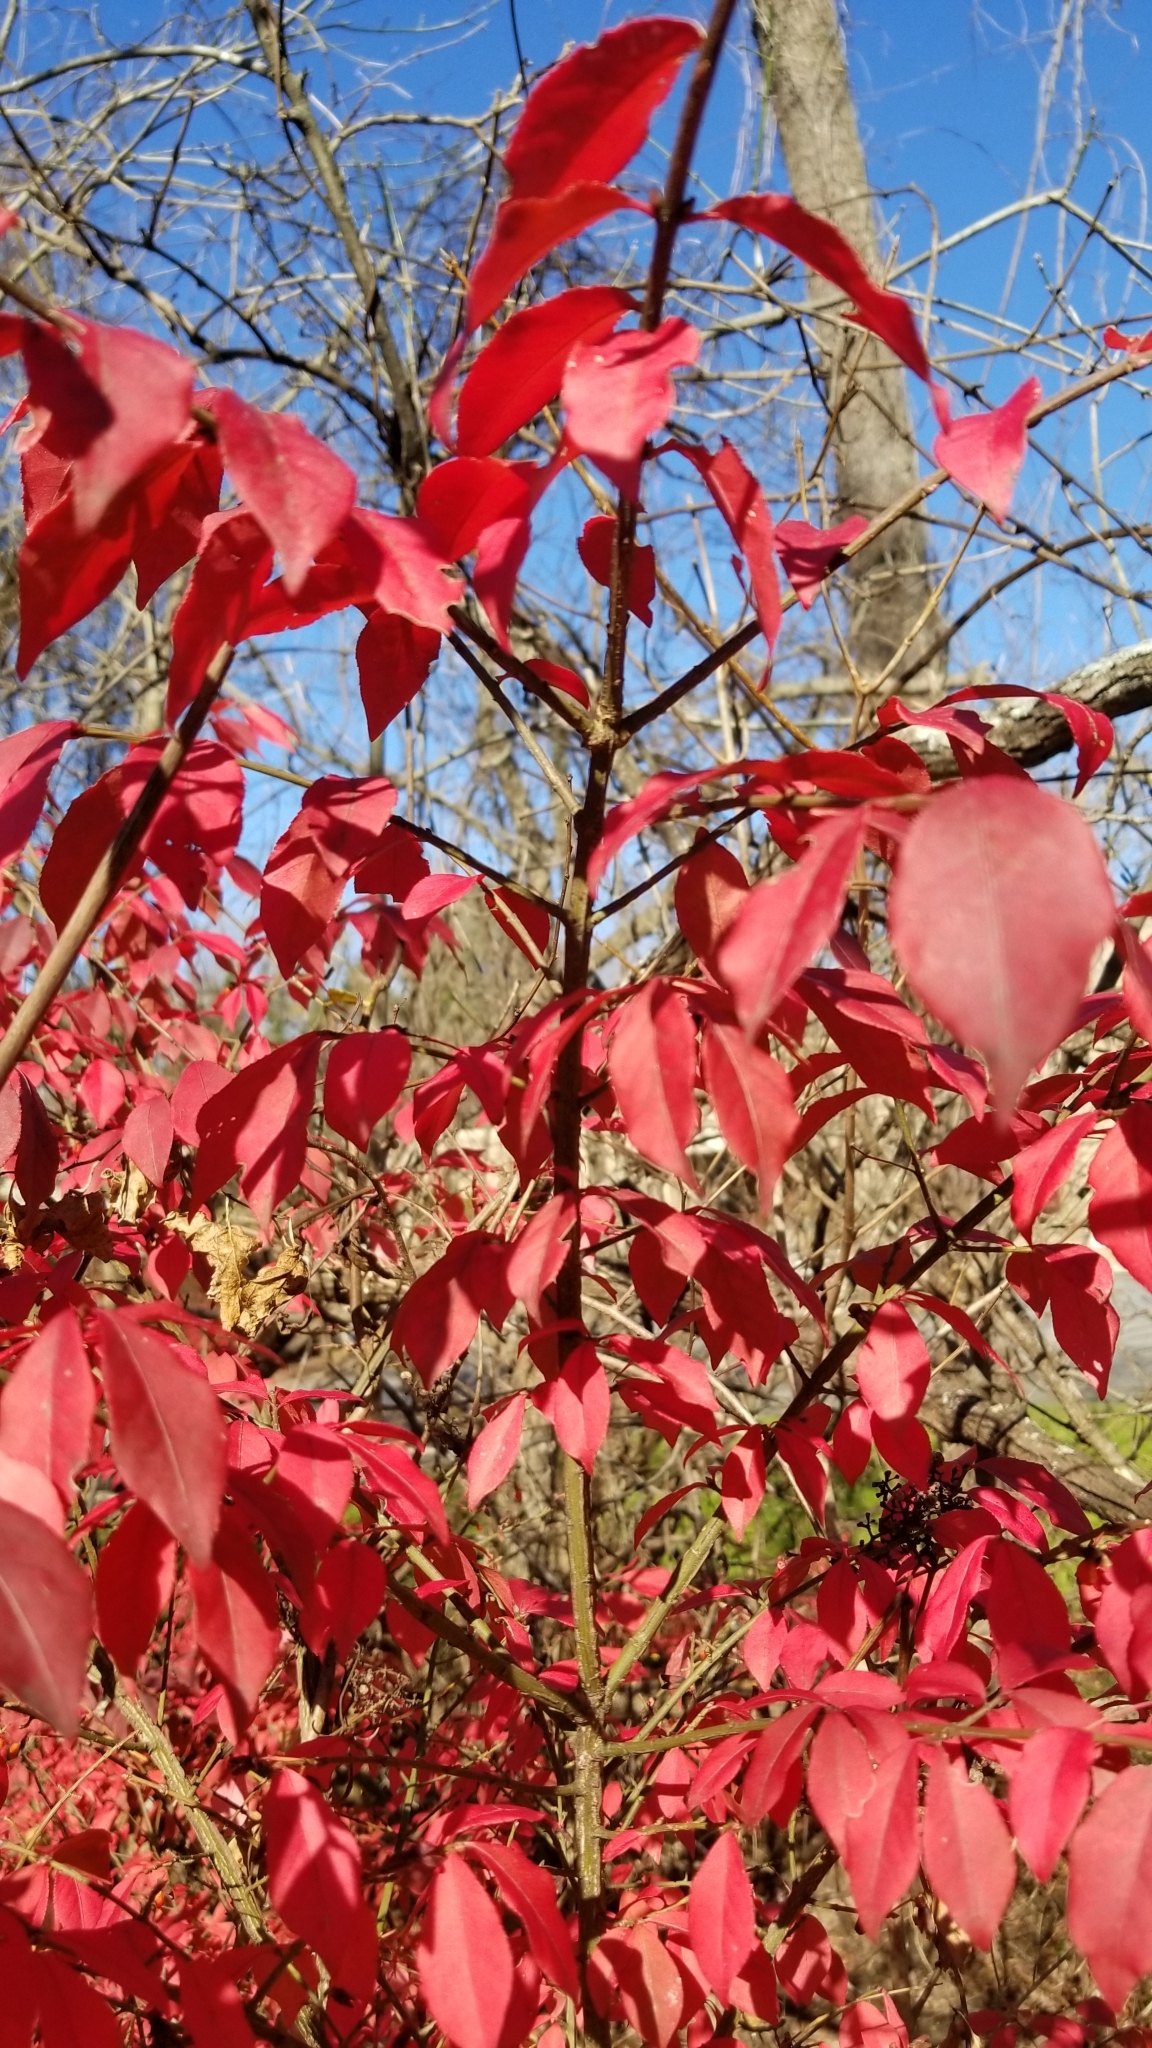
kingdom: Plantae
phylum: Tracheophyta
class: Magnoliopsida
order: Celastrales
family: Celastraceae
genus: Euonymus
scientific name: Euonymus alatus
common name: Winged euonymus
